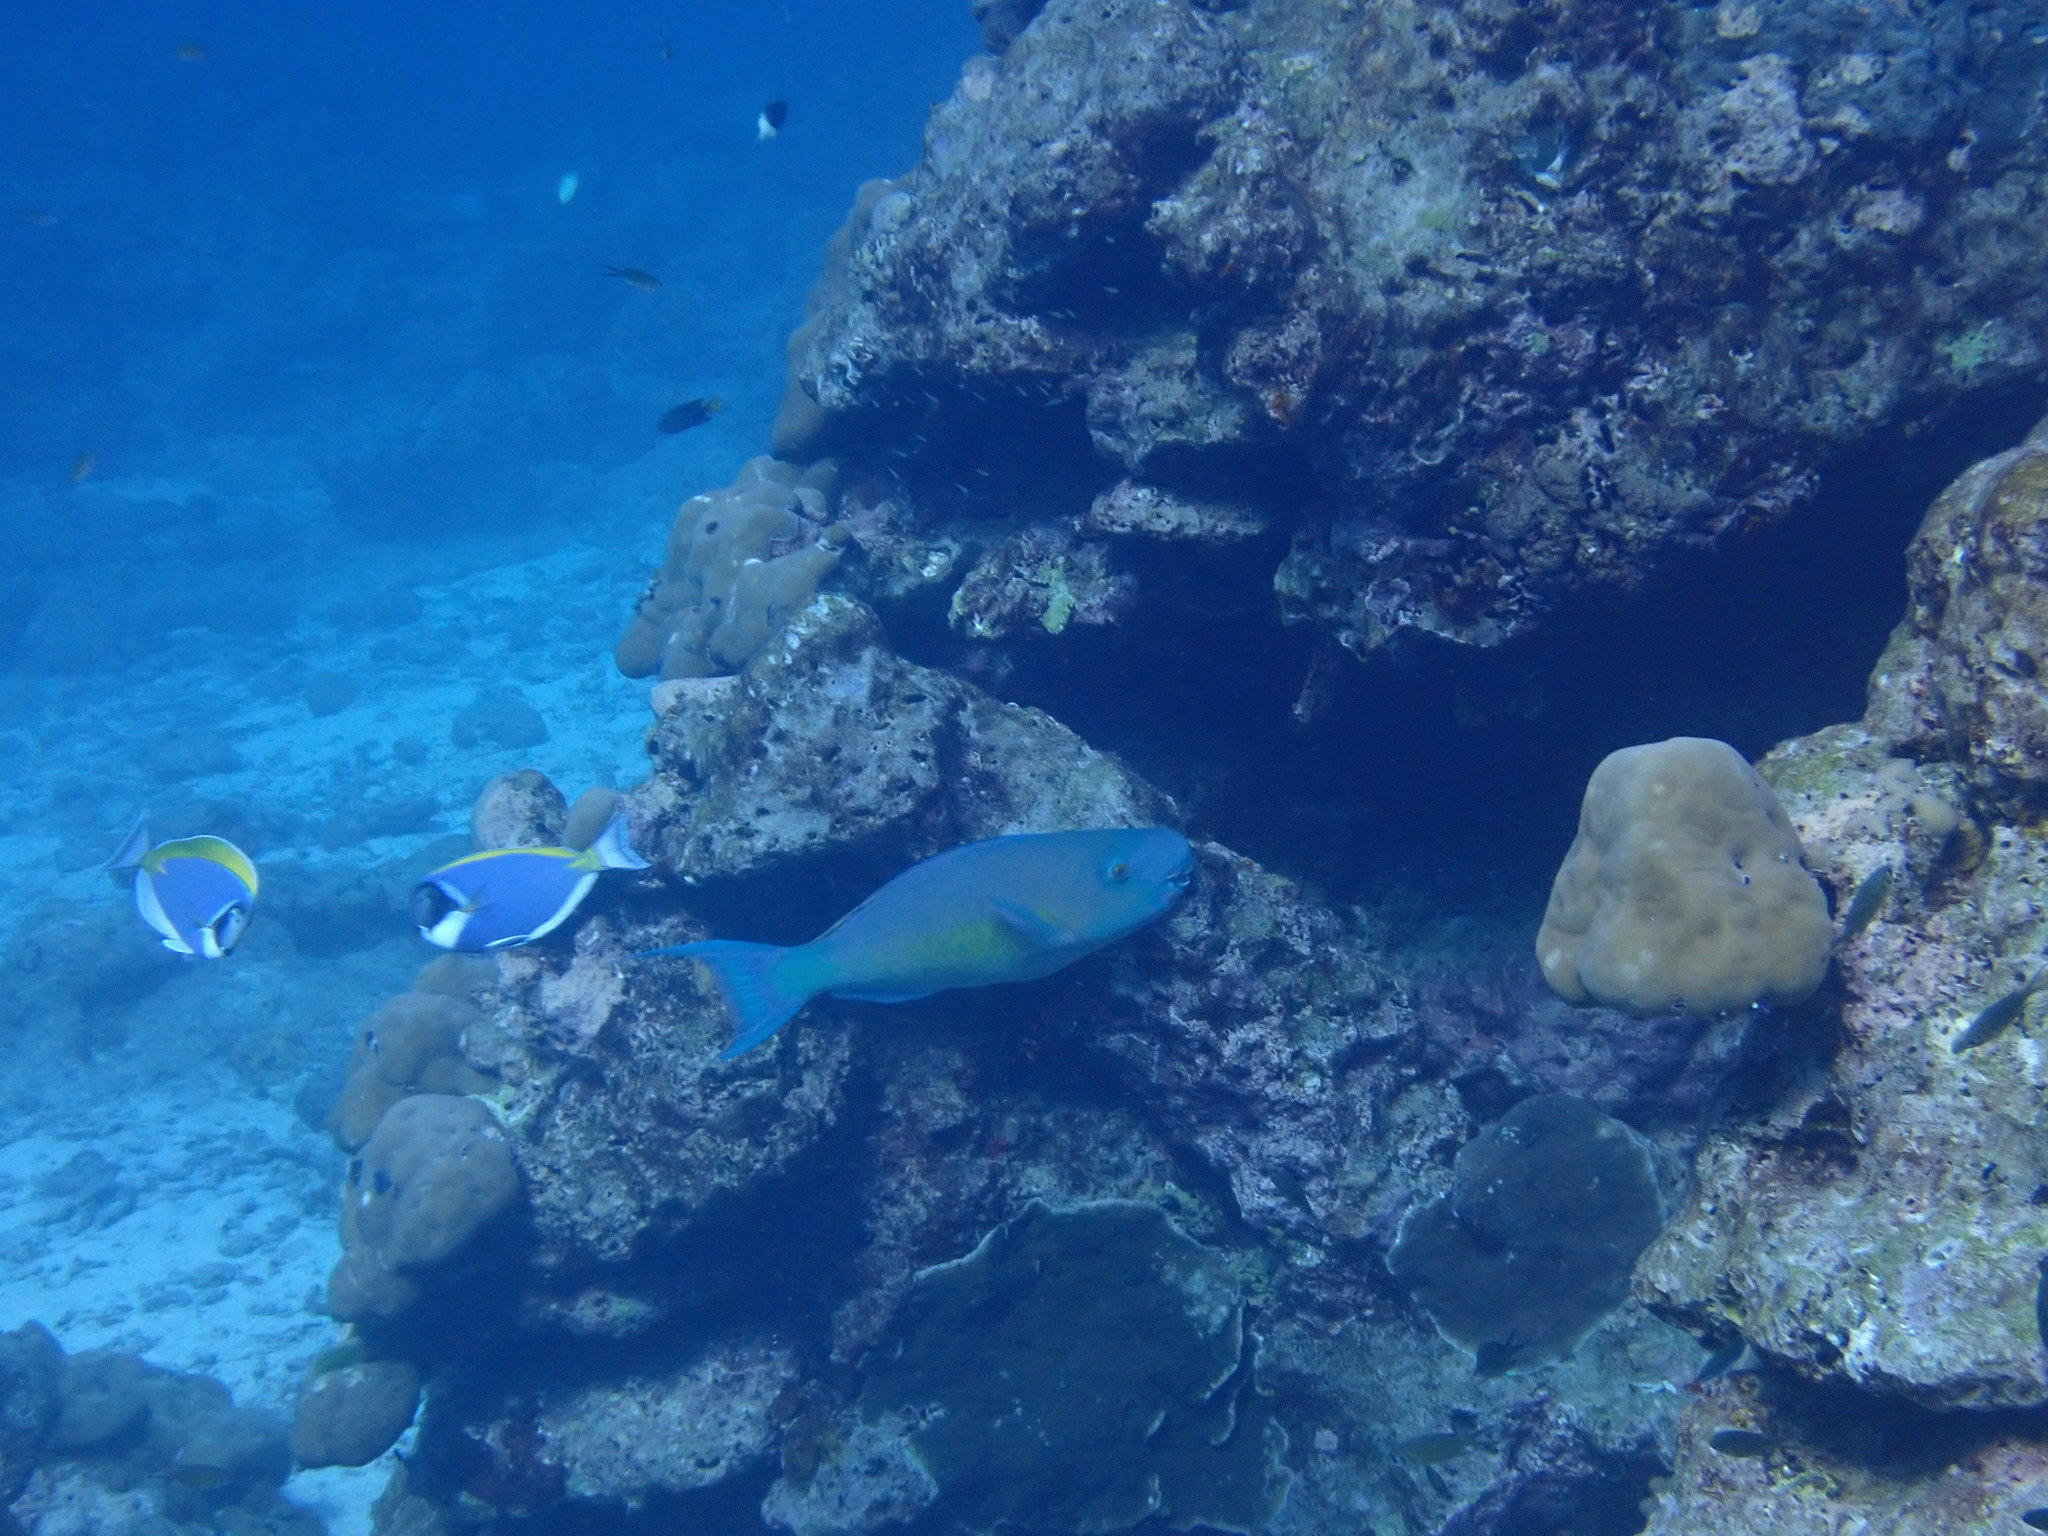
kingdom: Animalia
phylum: Chordata
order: Perciformes
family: Scaridae
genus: Scarus
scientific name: Scarus rubroviolaceus
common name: Ember parrotfish
